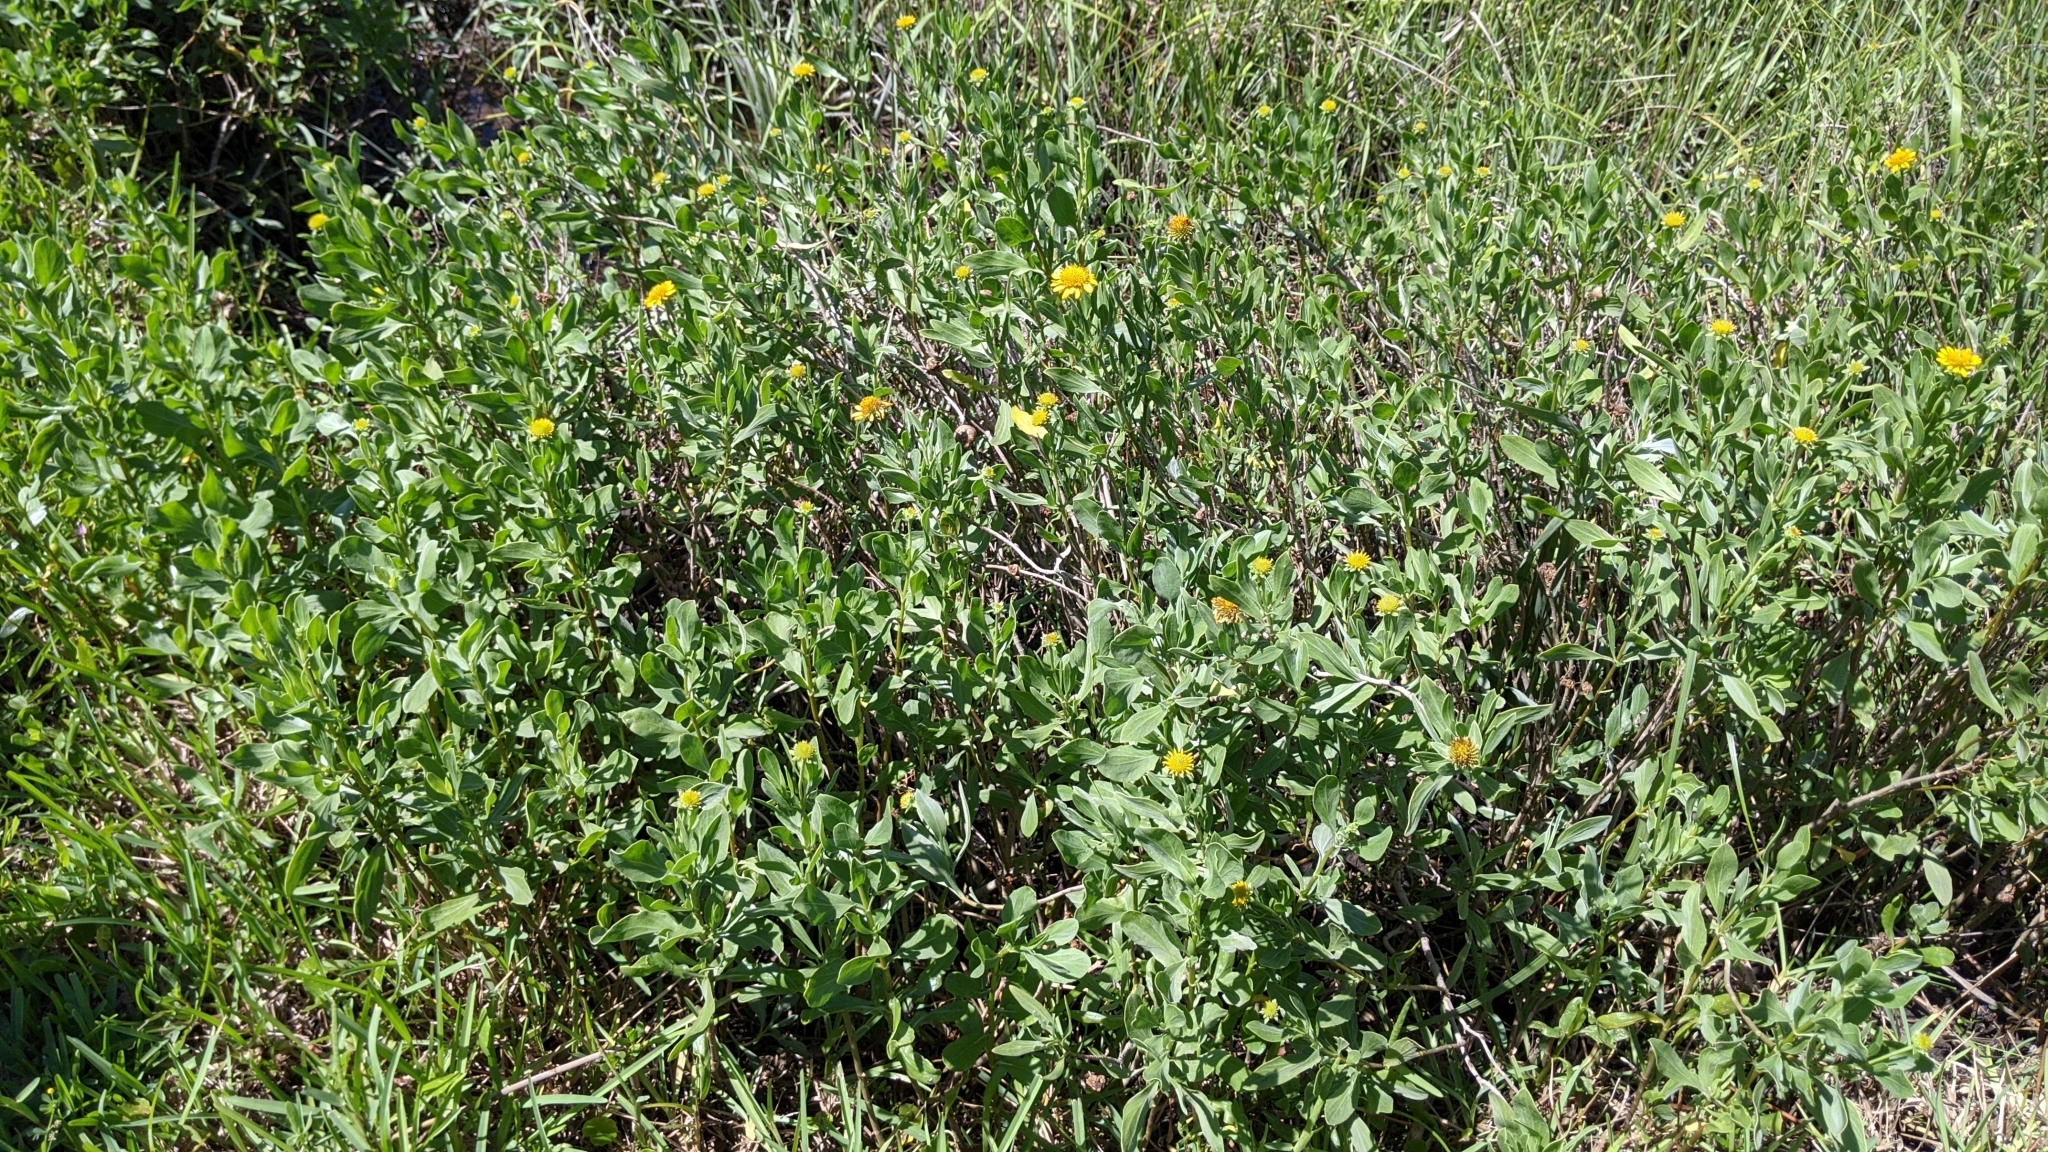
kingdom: Plantae
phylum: Tracheophyta
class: Magnoliopsida
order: Asterales
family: Asteraceae
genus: Borrichia
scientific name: Borrichia frutescens
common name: Sea oxeye
